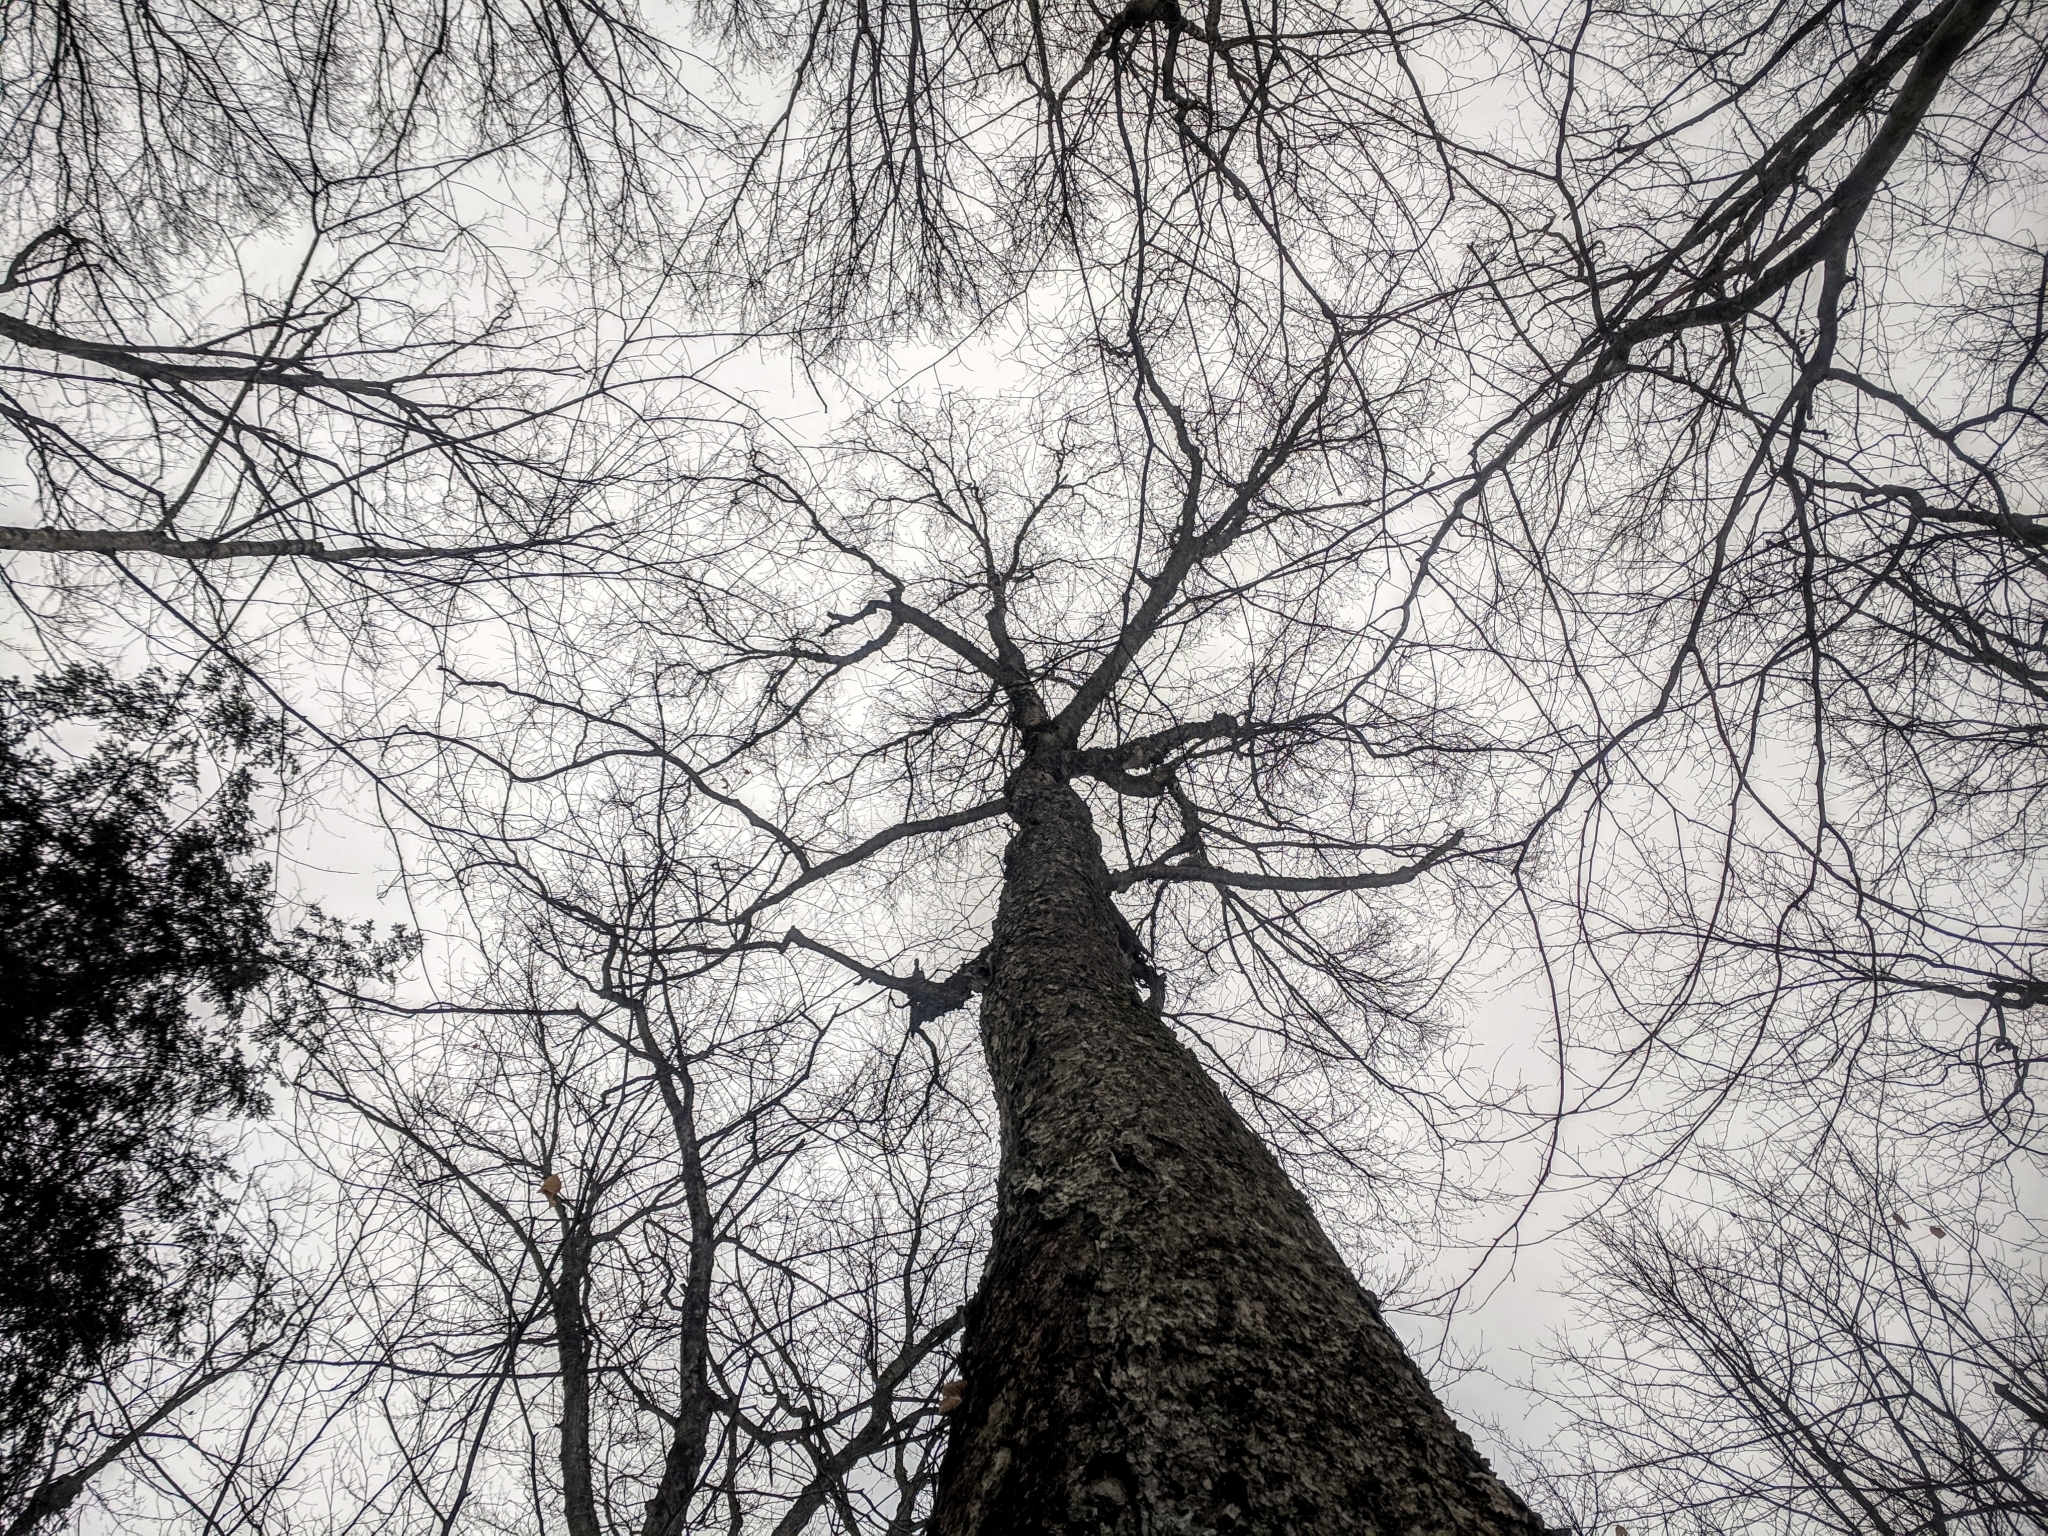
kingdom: Plantae
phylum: Tracheophyta
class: Magnoliopsida
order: Fagales
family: Betulaceae
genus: Betula
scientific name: Betula alleghaniensis
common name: Yellow birch
